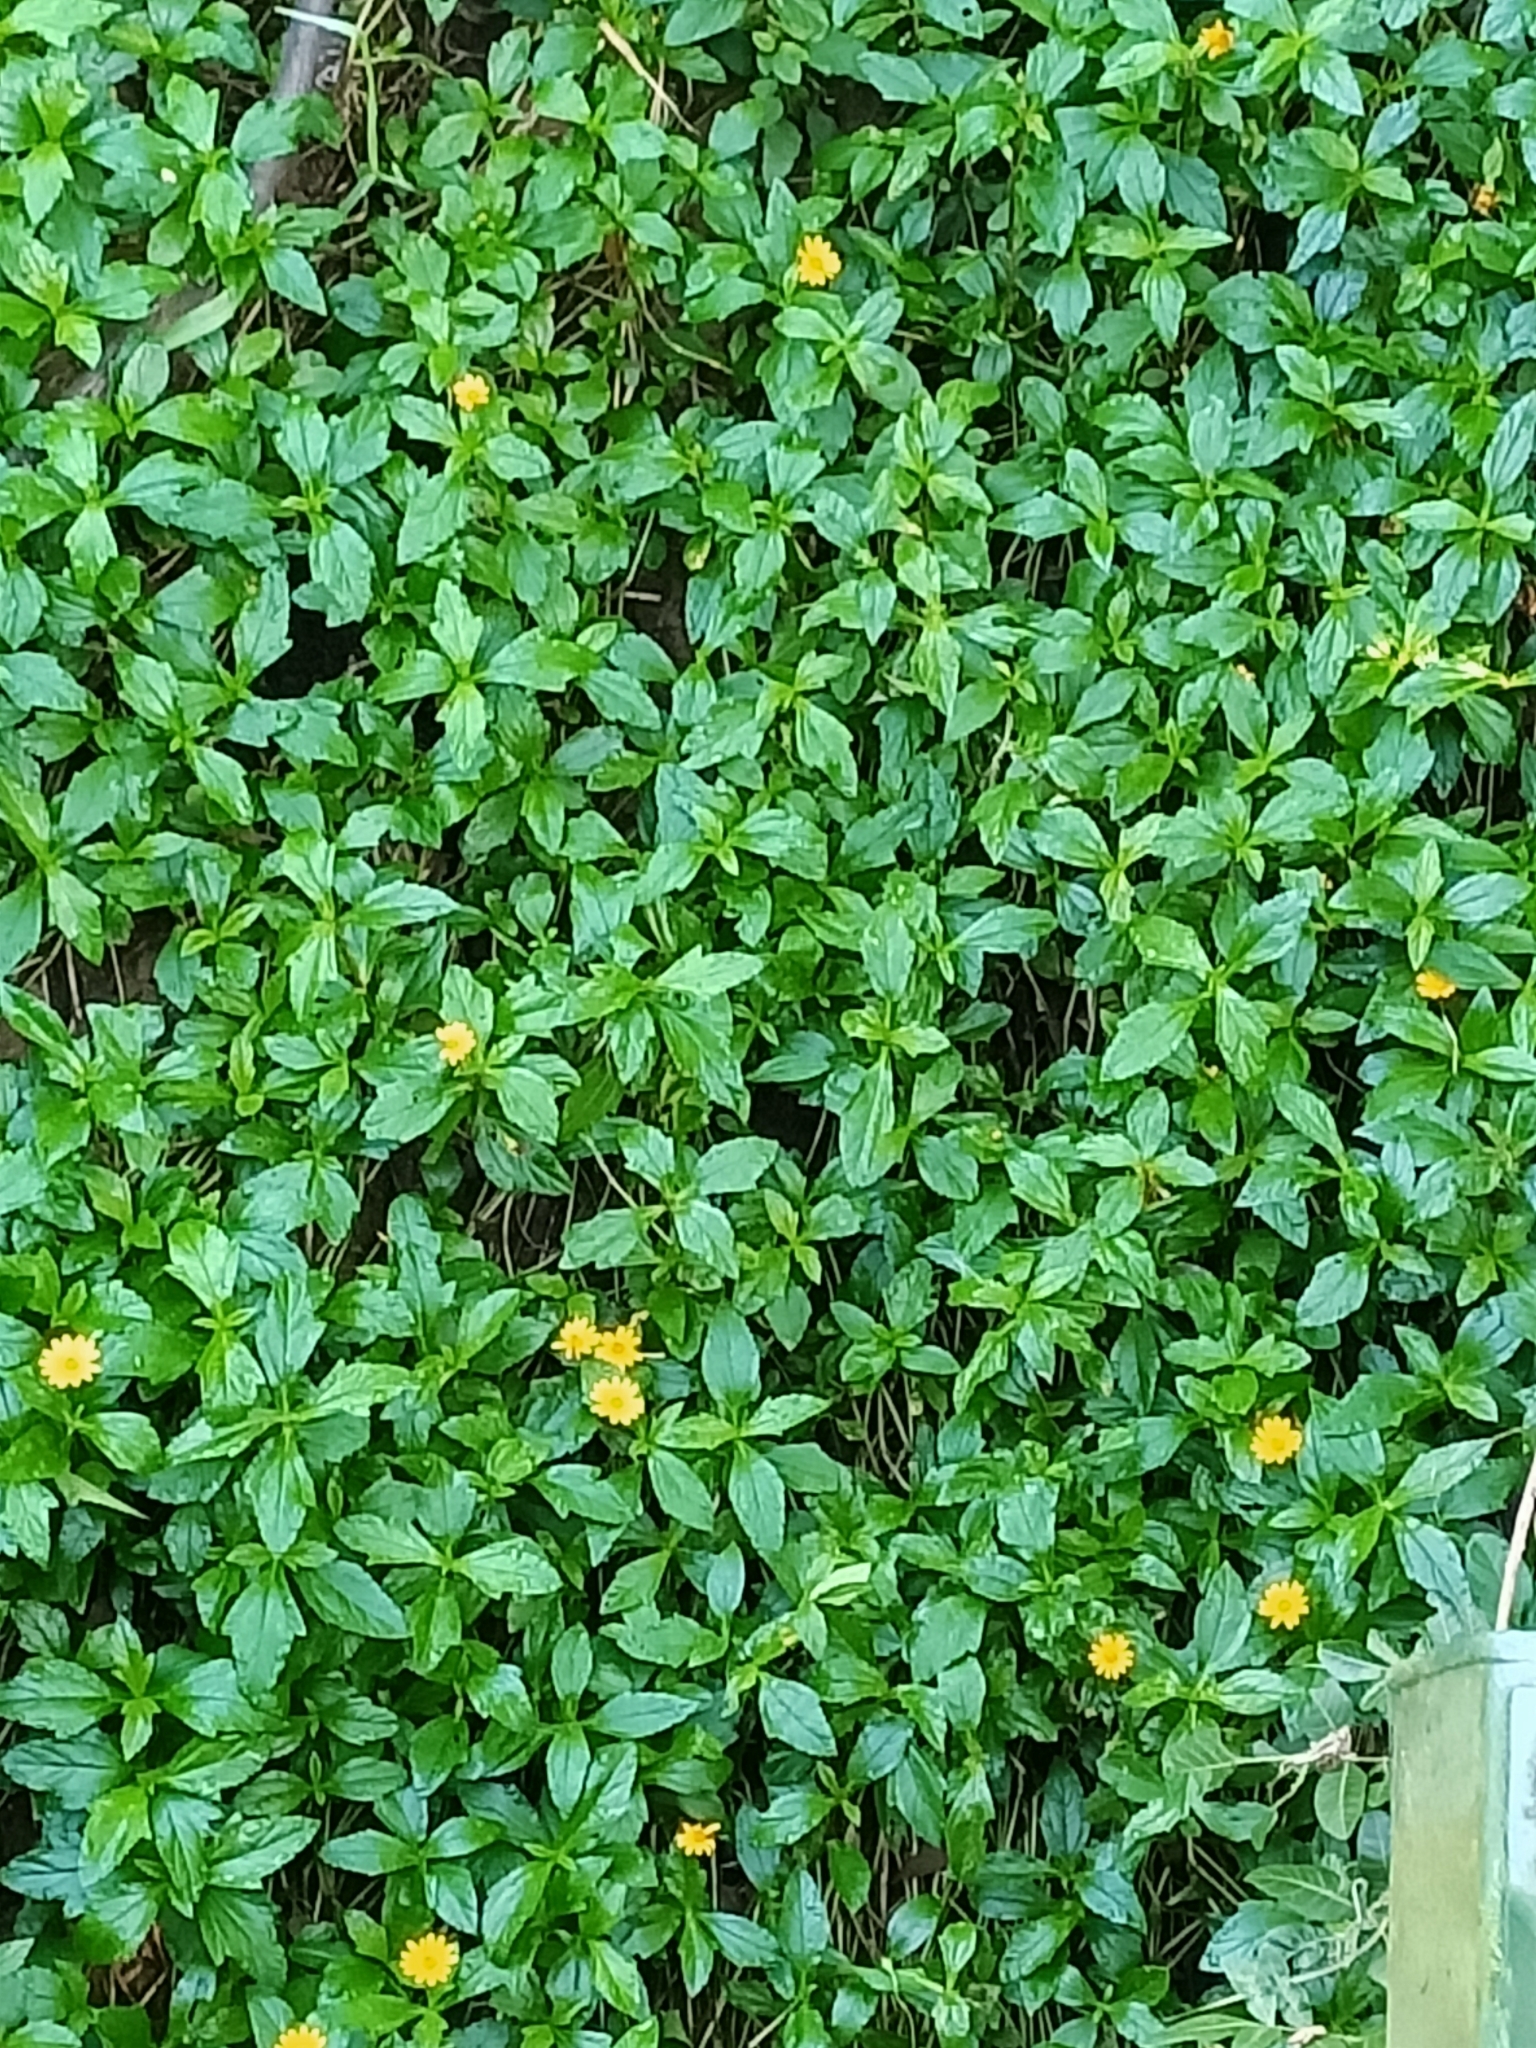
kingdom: Plantae
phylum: Tracheophyta
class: Magnoliopsida
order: Asterales
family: Asteraceae
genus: Sphagneticola
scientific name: Sphagneticola trilobata
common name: Bay biscayne creeping-oxeye
